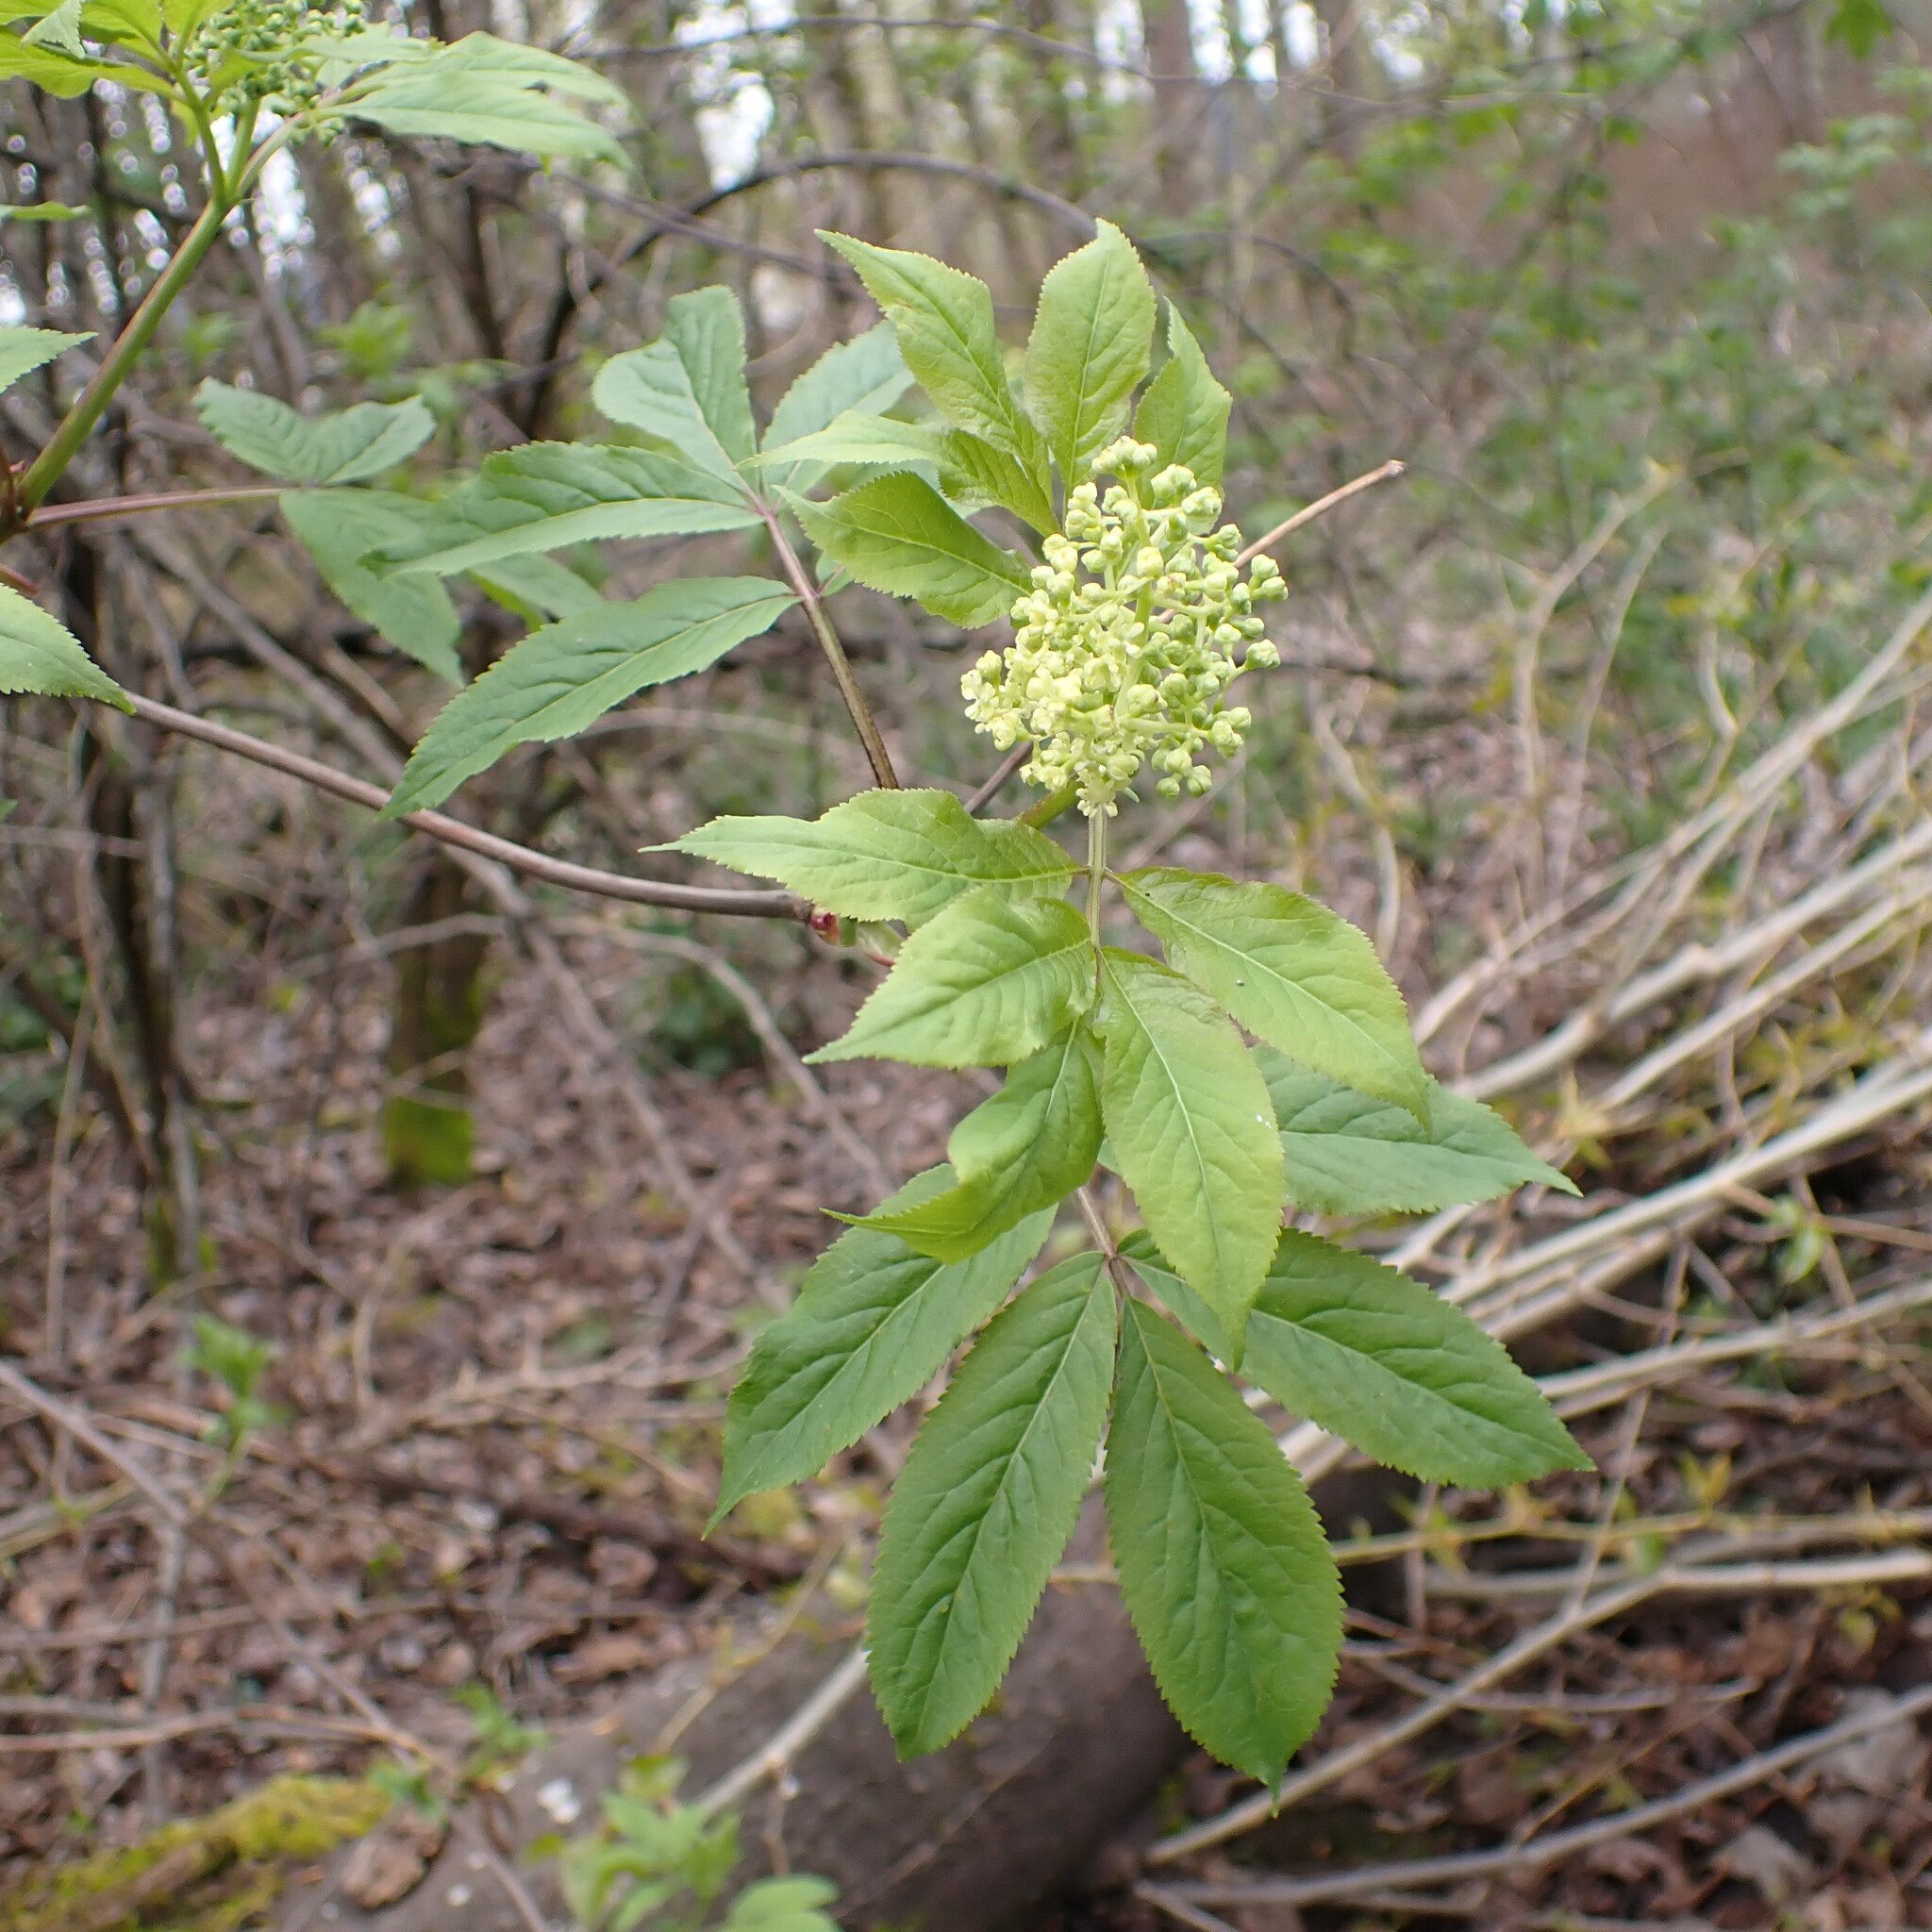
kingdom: Plantae
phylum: Tracheophyta
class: Magnoliopsida
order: Dipsacales
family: Viburnaceae
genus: Sambucus
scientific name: Sambucus racemosa
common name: Red-berried elder
